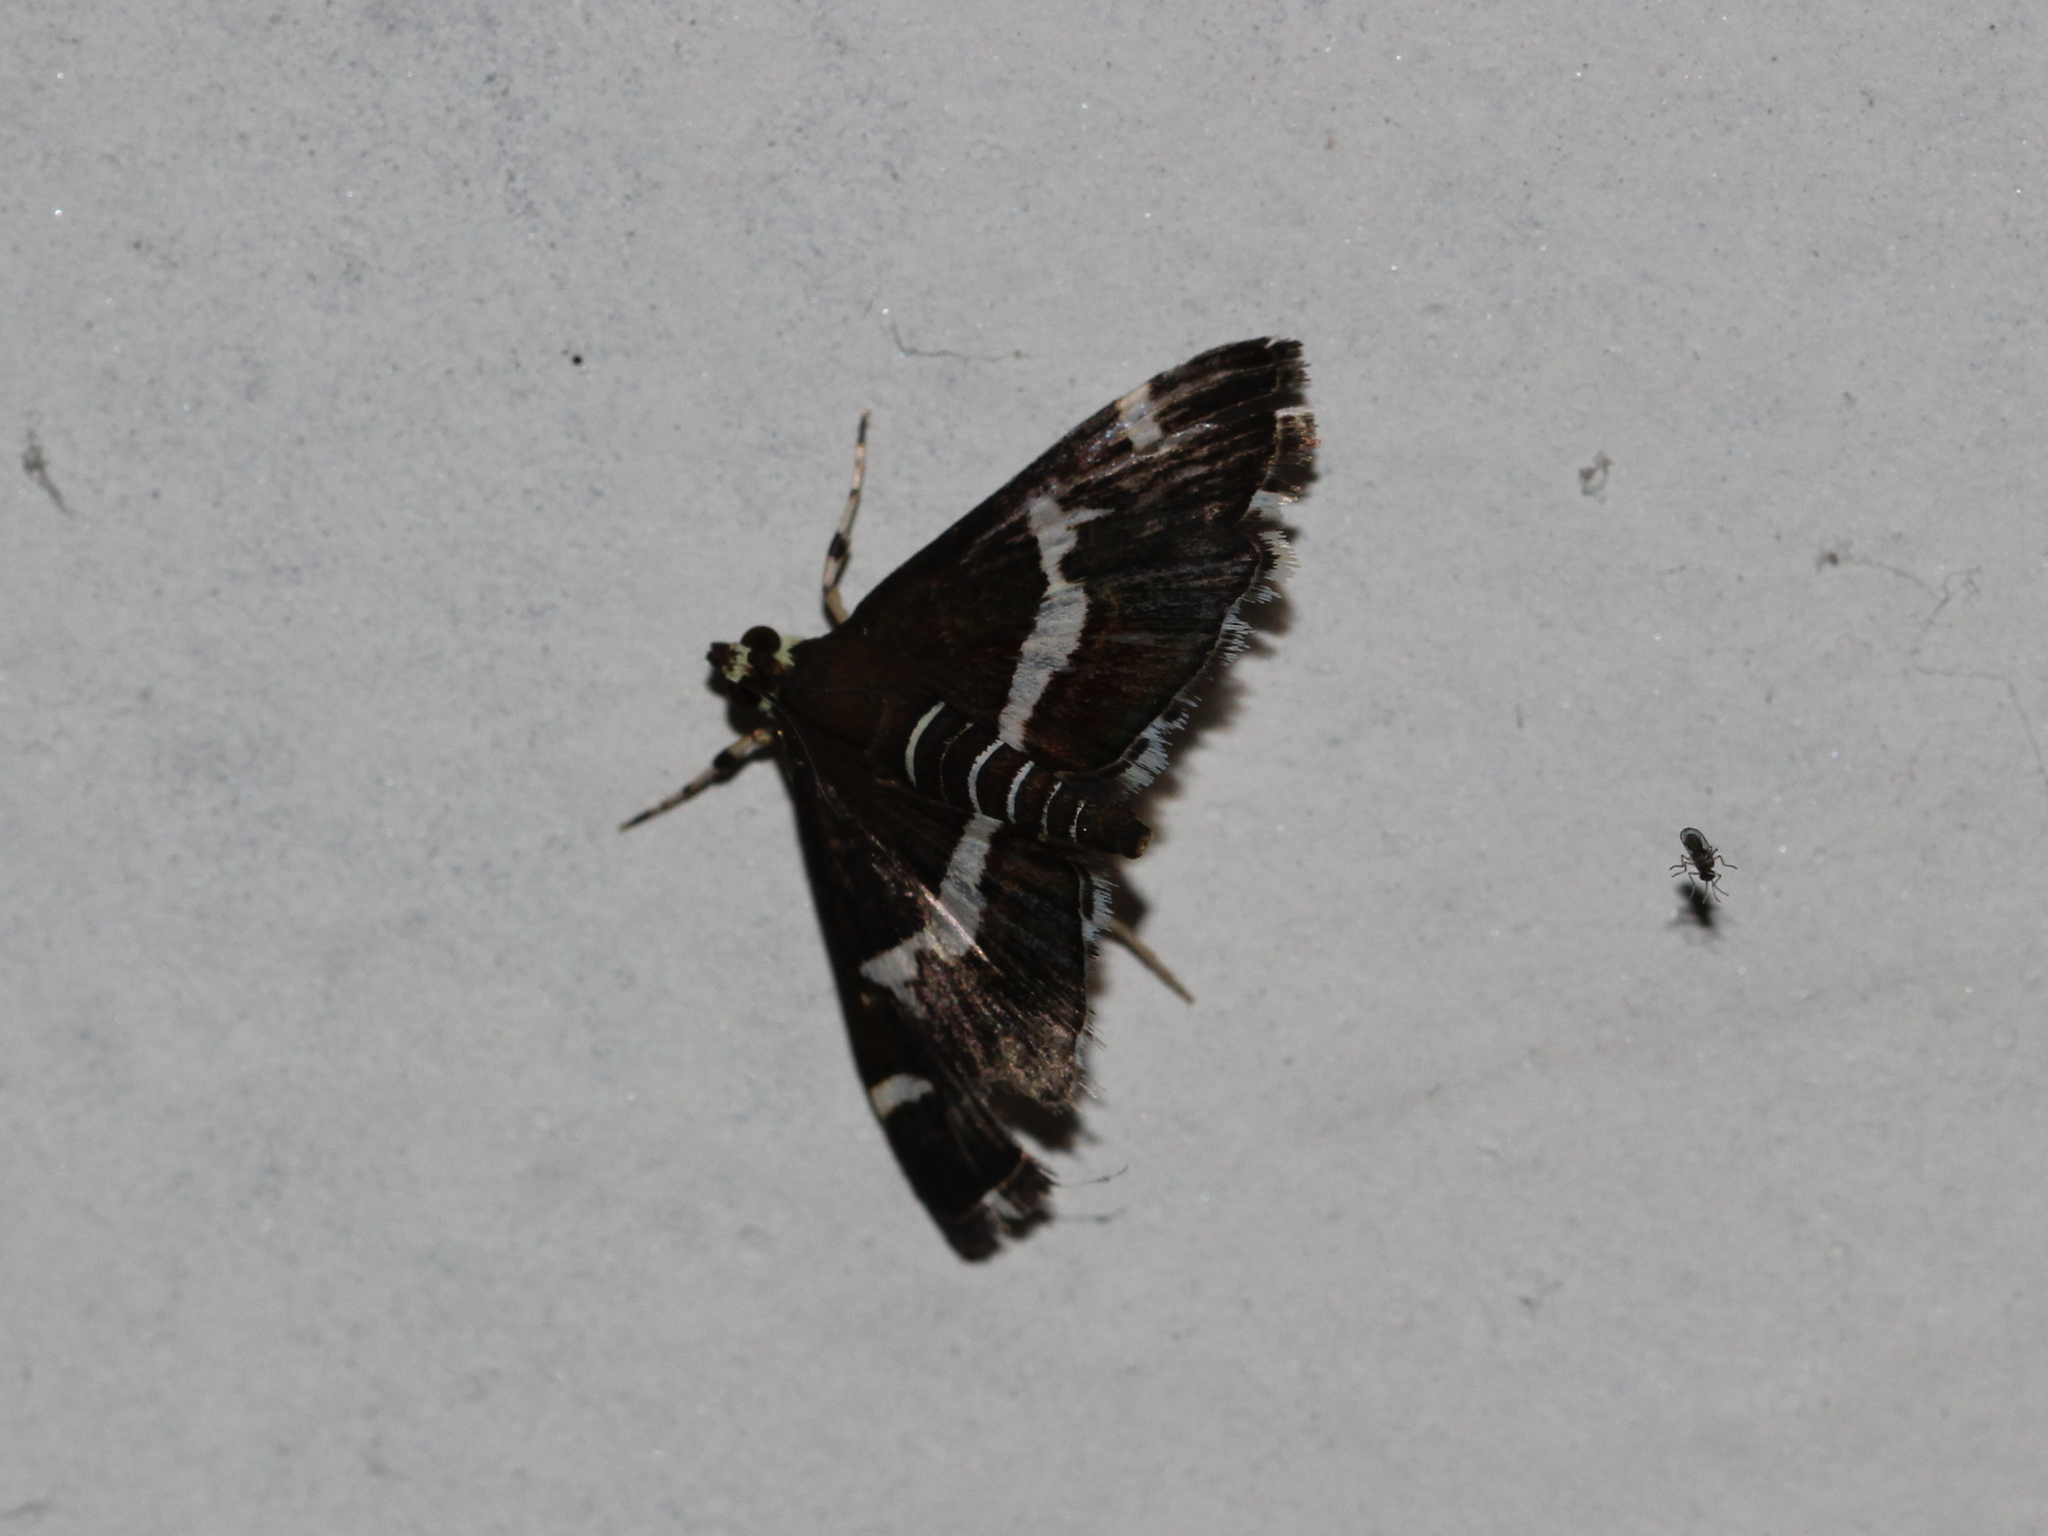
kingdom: Animalia
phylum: Arthropoda
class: Insecta
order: Lepidoptera
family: Crambidae
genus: Spoladea
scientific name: Spoladea recurvalis
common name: Beet webworm moth
